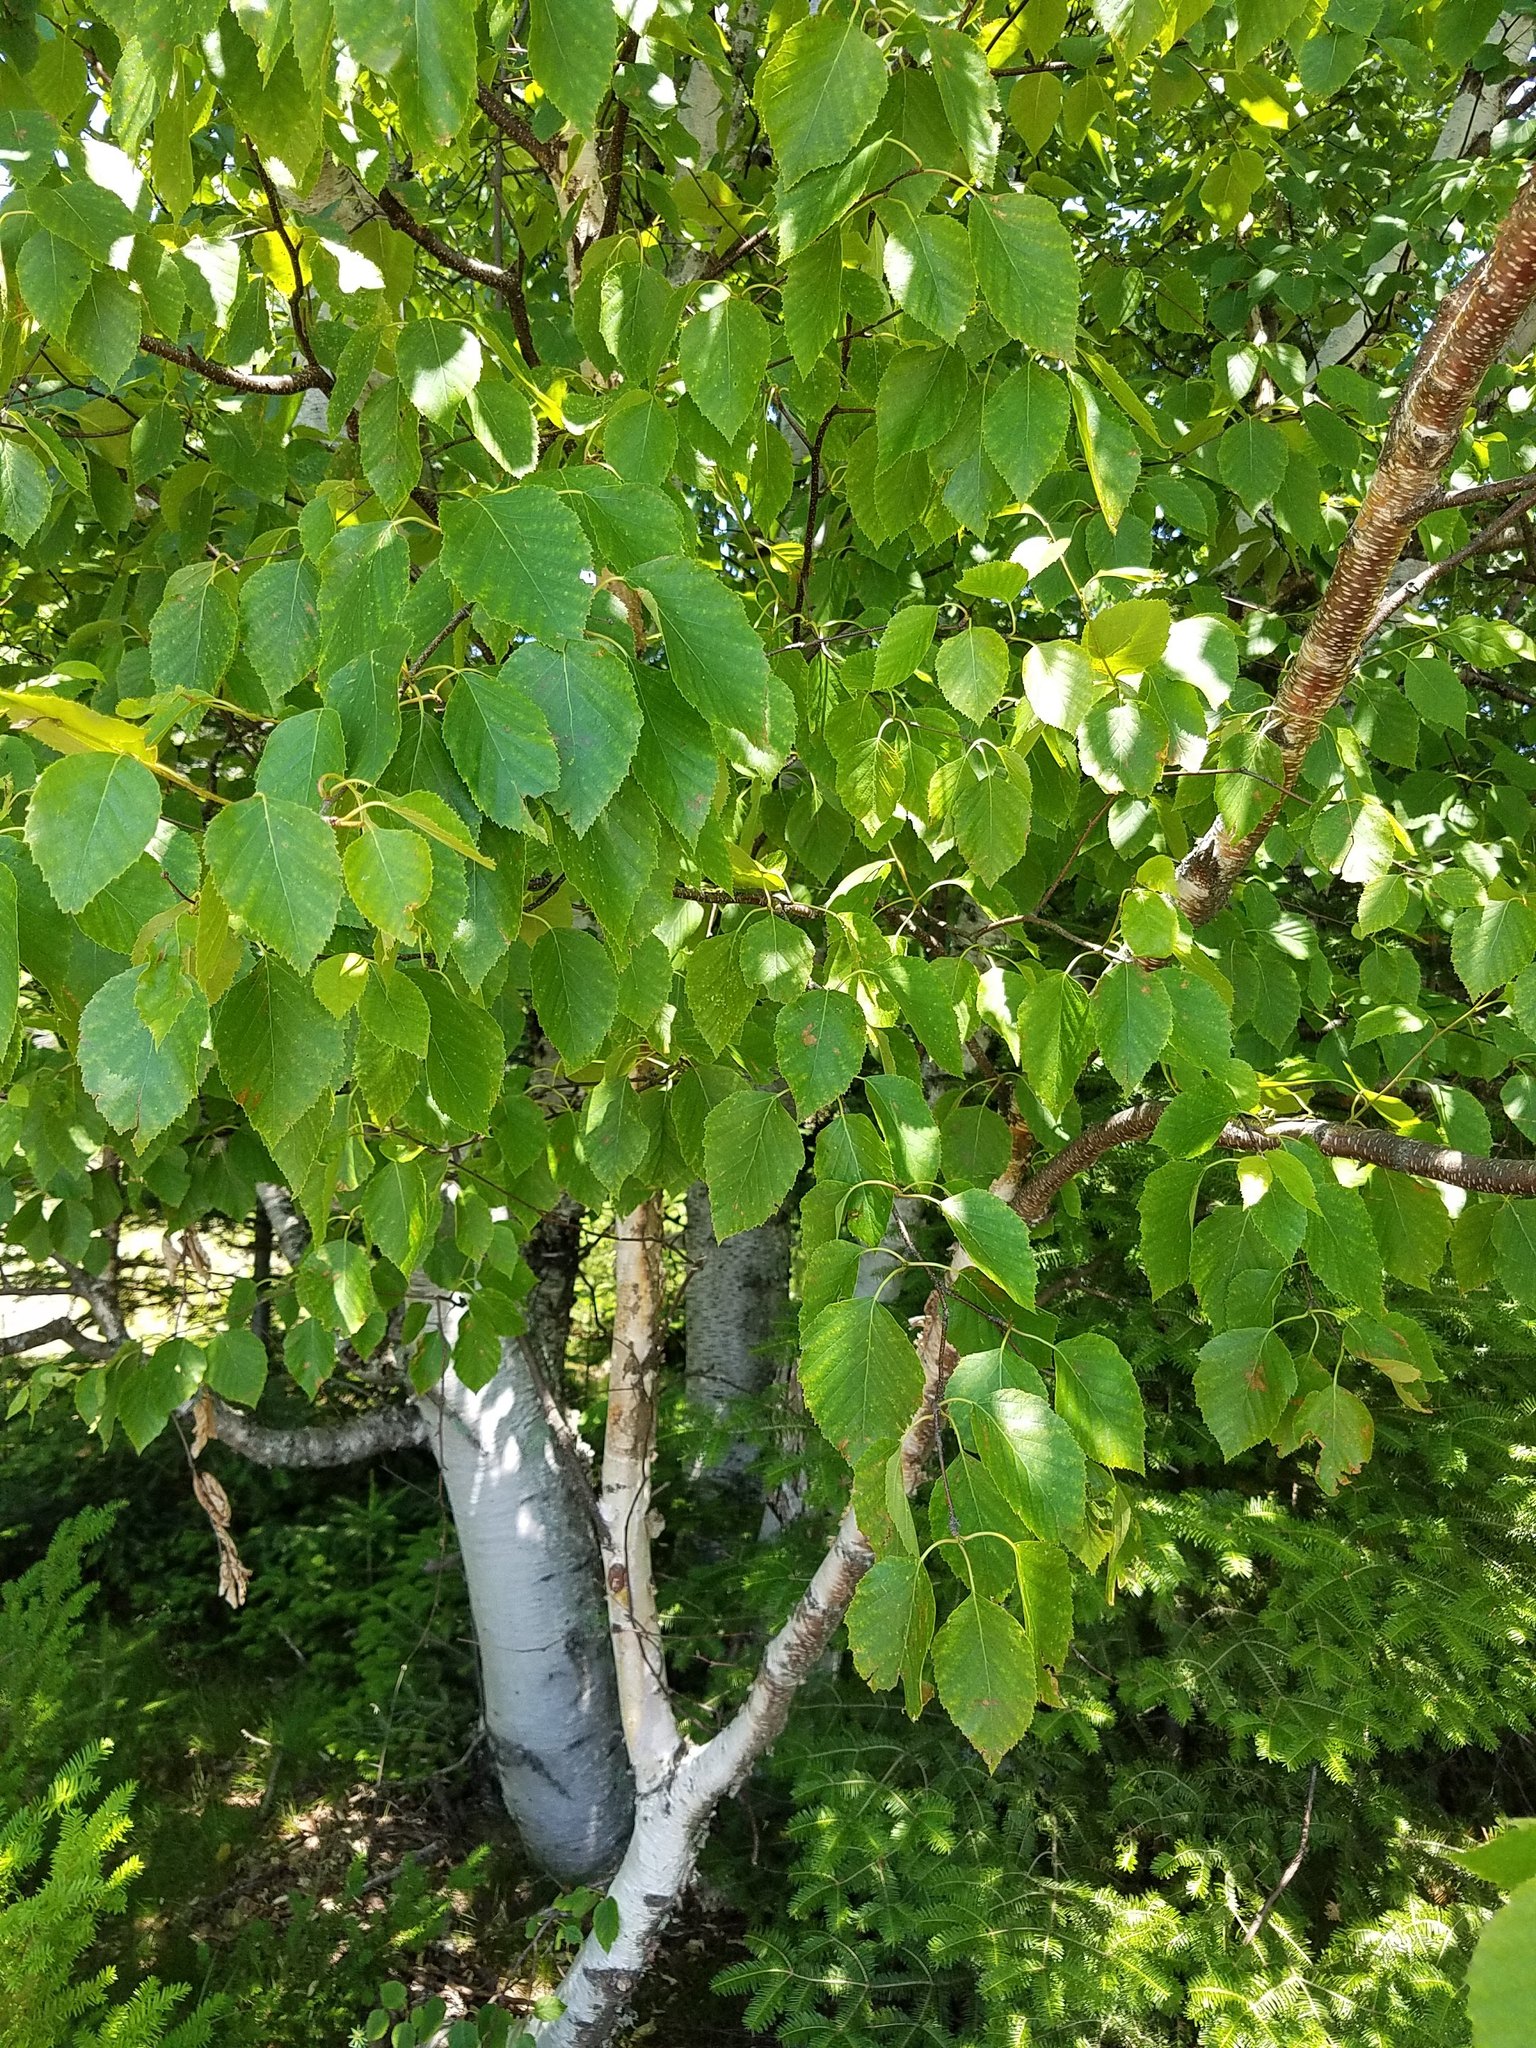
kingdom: Plantae
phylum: Tracheophyta
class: Magnoliopsida
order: Fagales
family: Betulaceae
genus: Betula
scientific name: Betula papyrifera
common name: Paper birch
